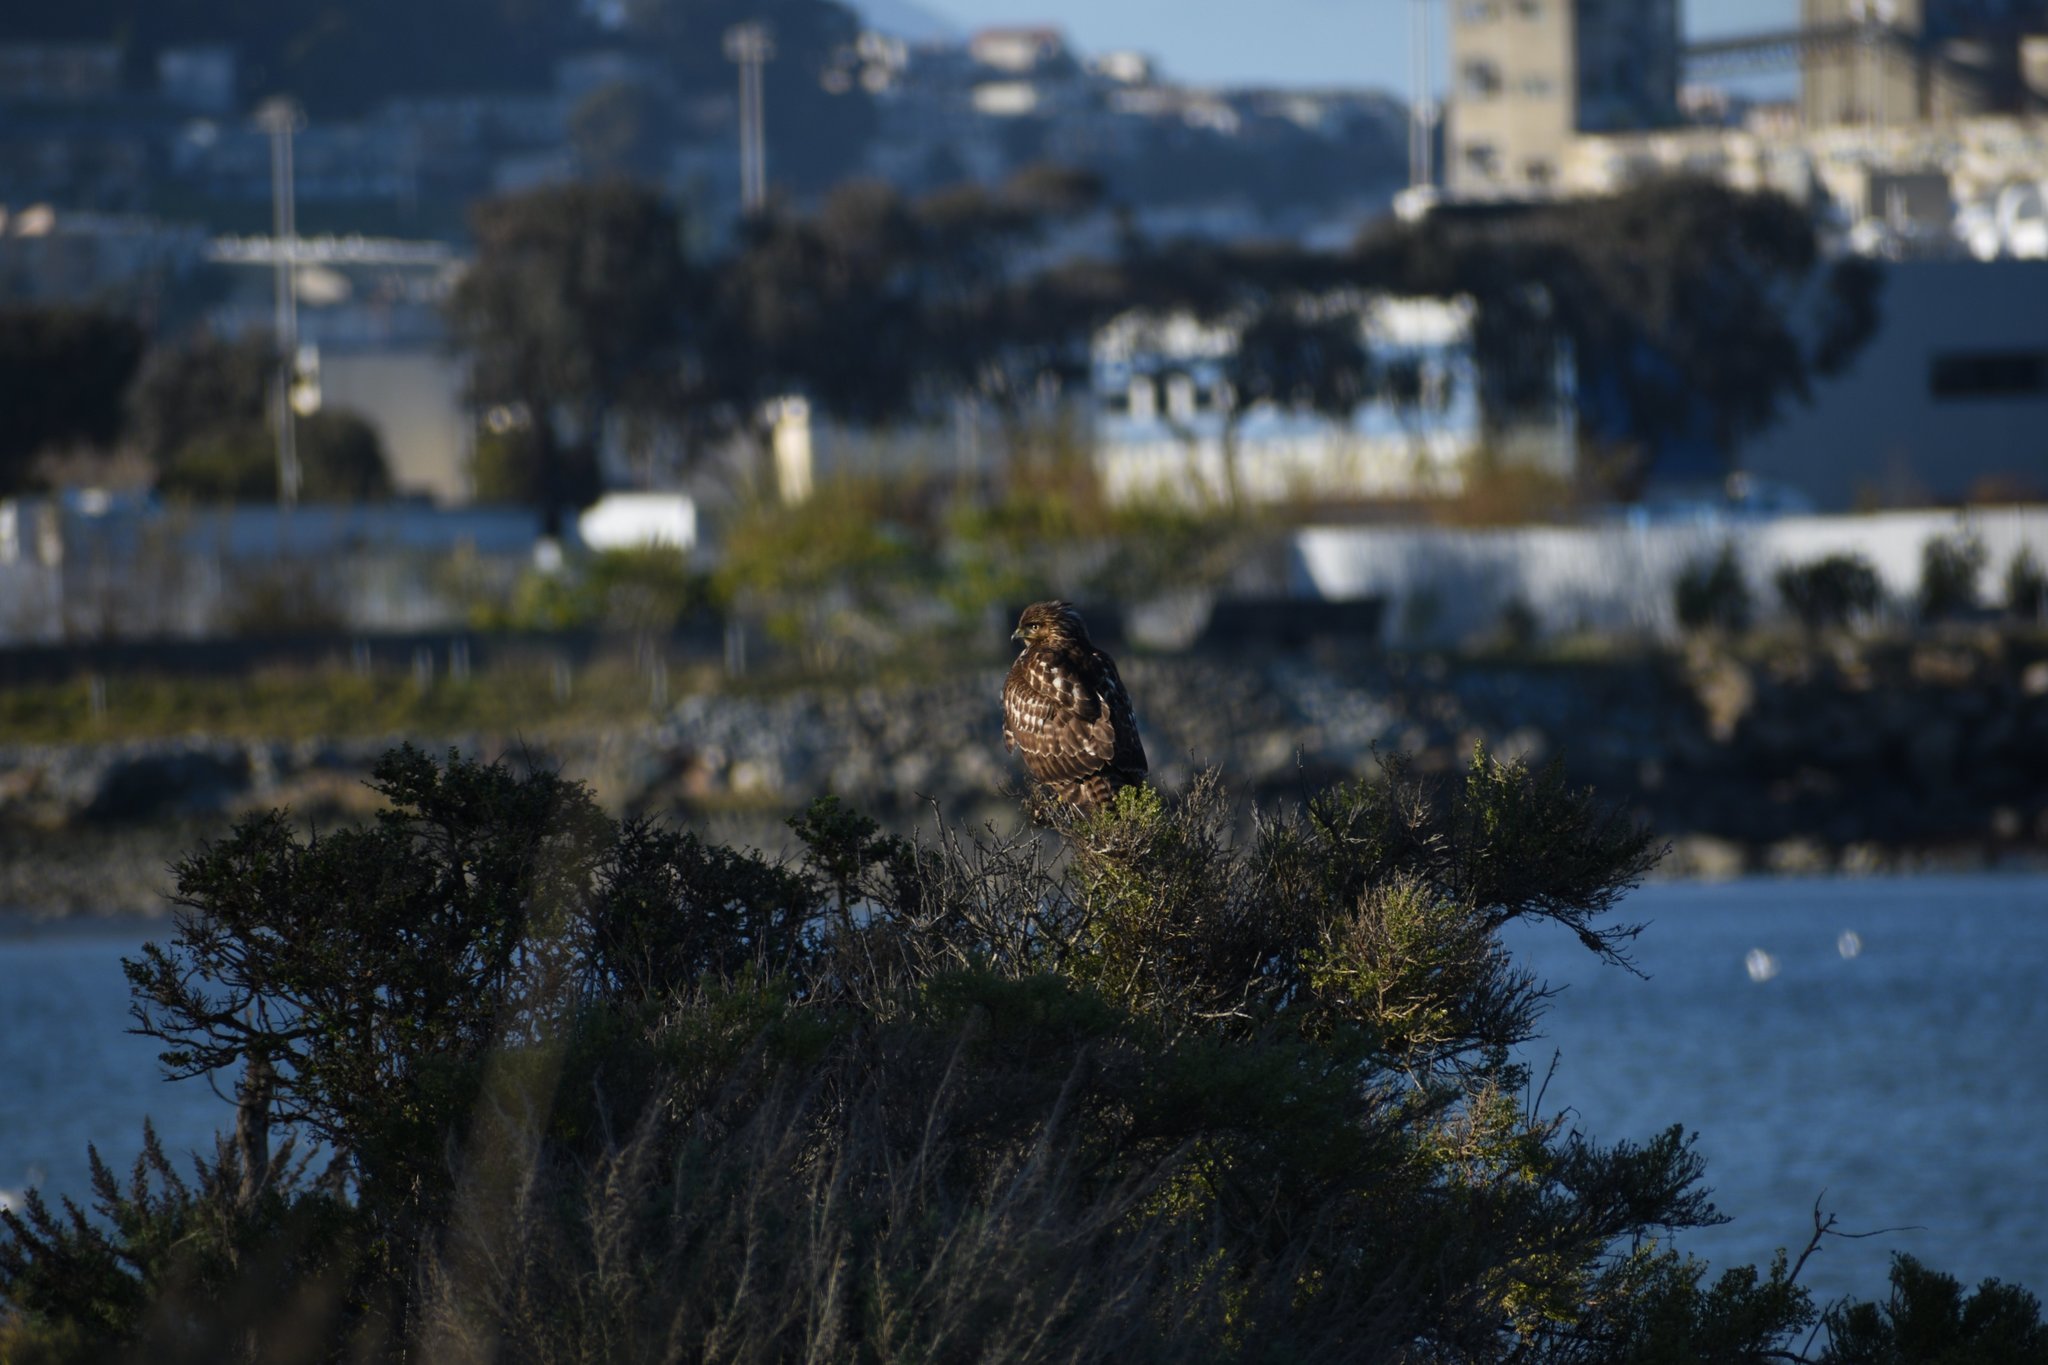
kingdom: Animalia
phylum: Chordata
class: Aves
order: Accipitriformes
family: Accipitridae
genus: Buteo
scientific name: Buteo jamaicensis
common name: Red-tailed hawk
